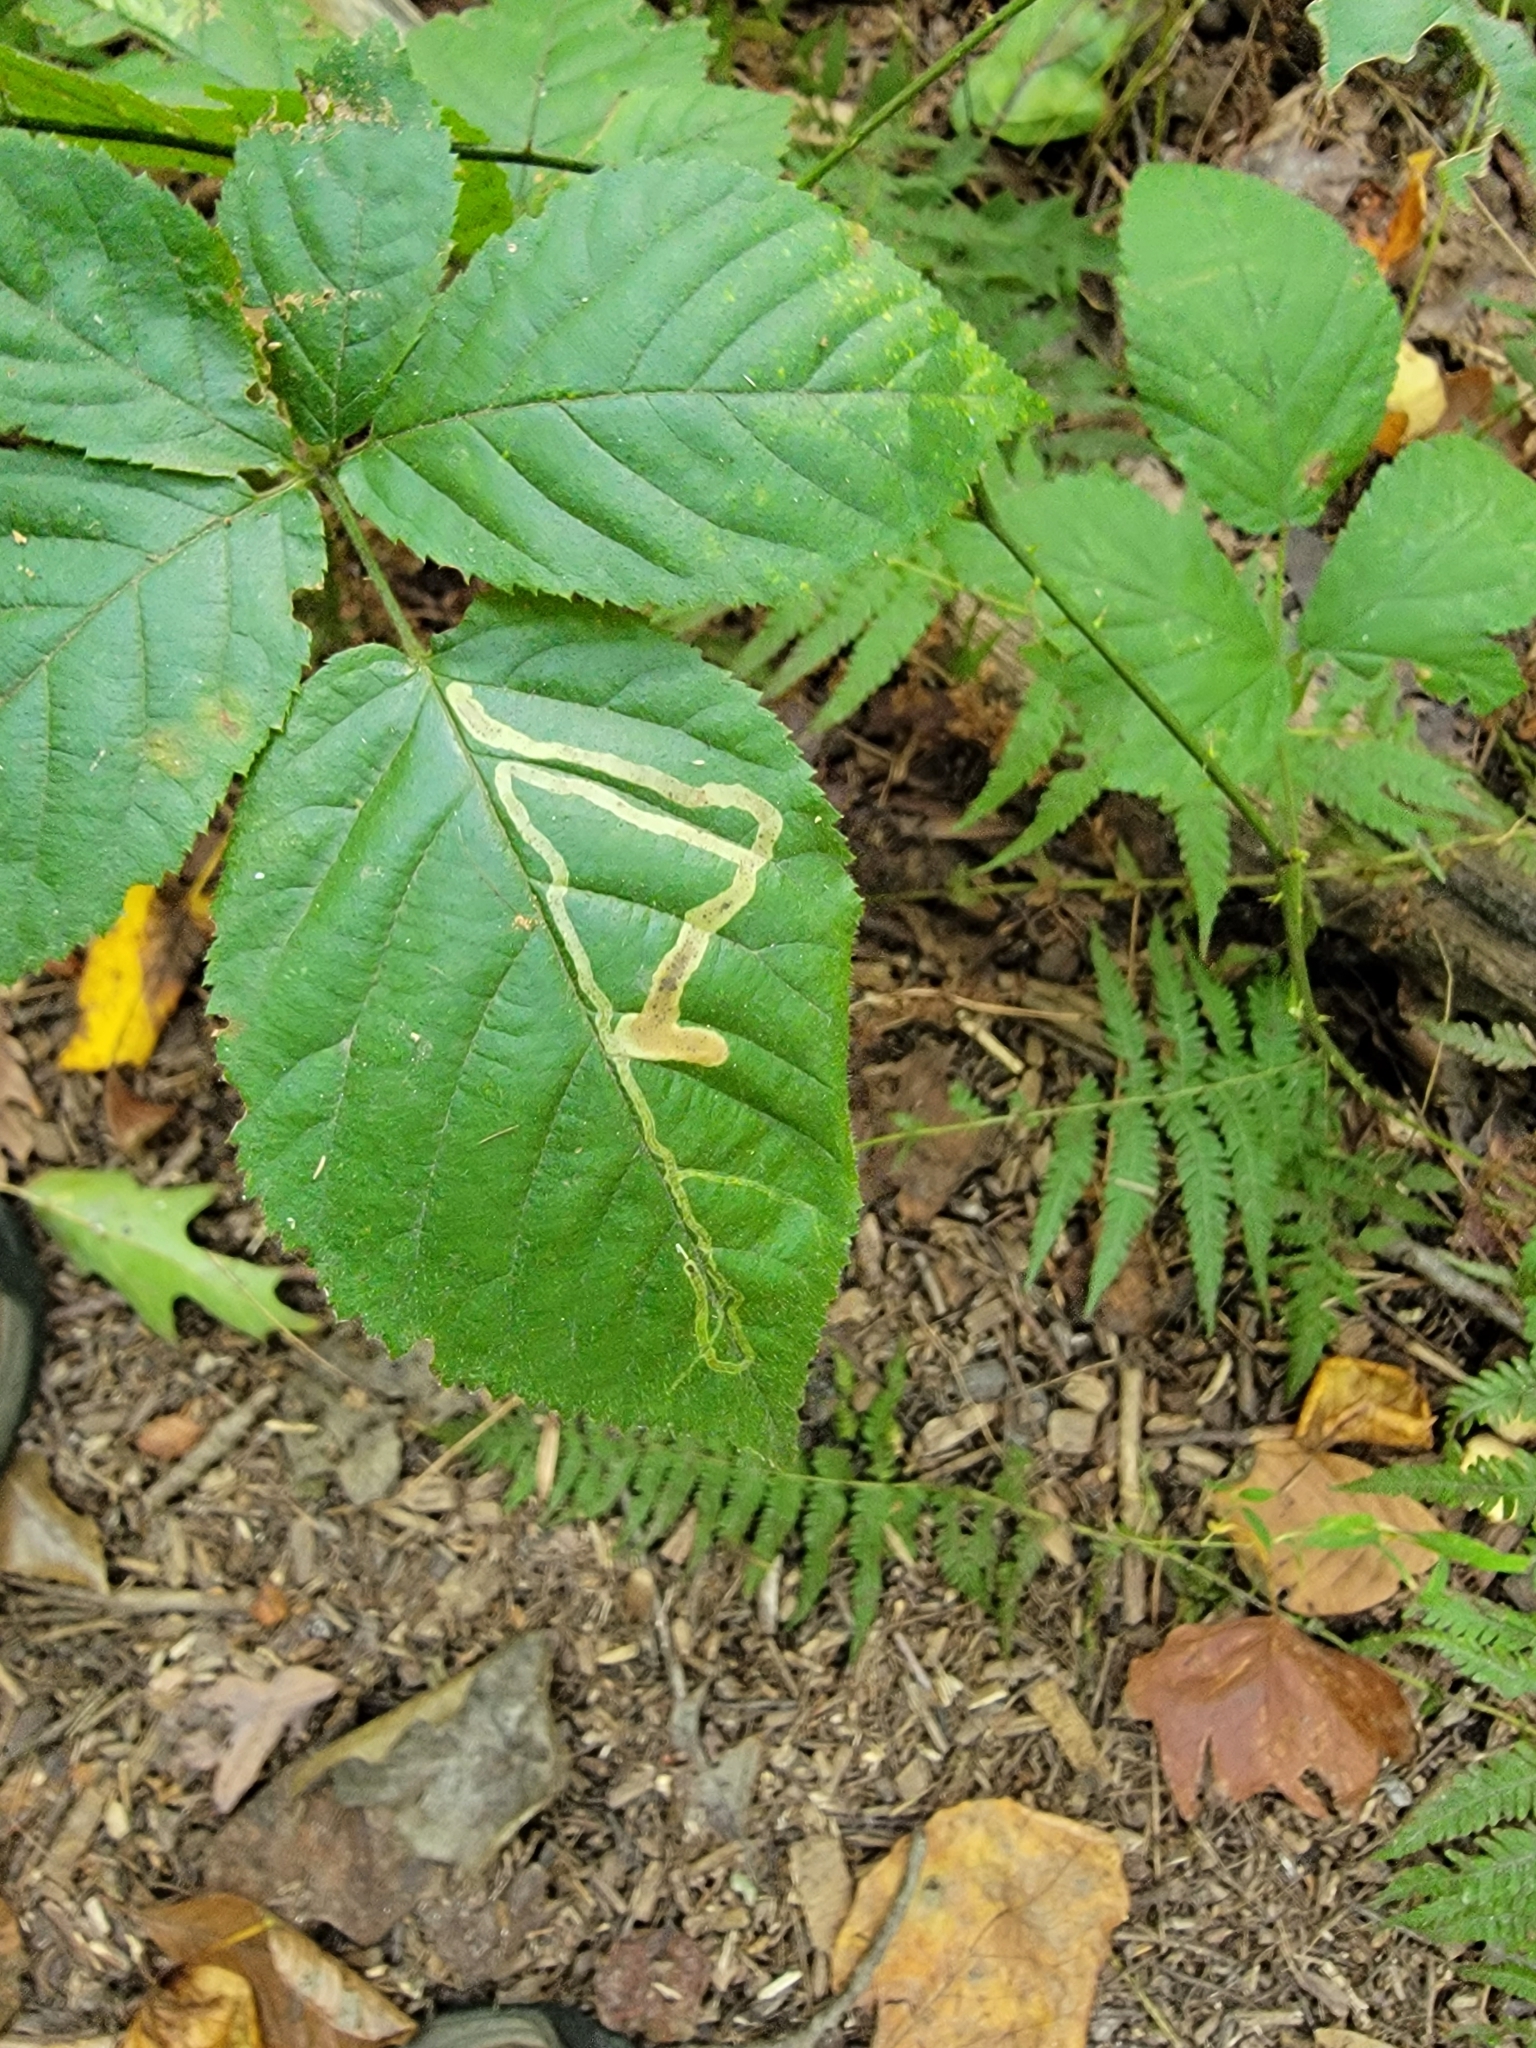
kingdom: Animalia
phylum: Arthropoda
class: Insecta
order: Diptera
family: Agromyzidae
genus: Agromyza
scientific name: Agromyza vockerothi
